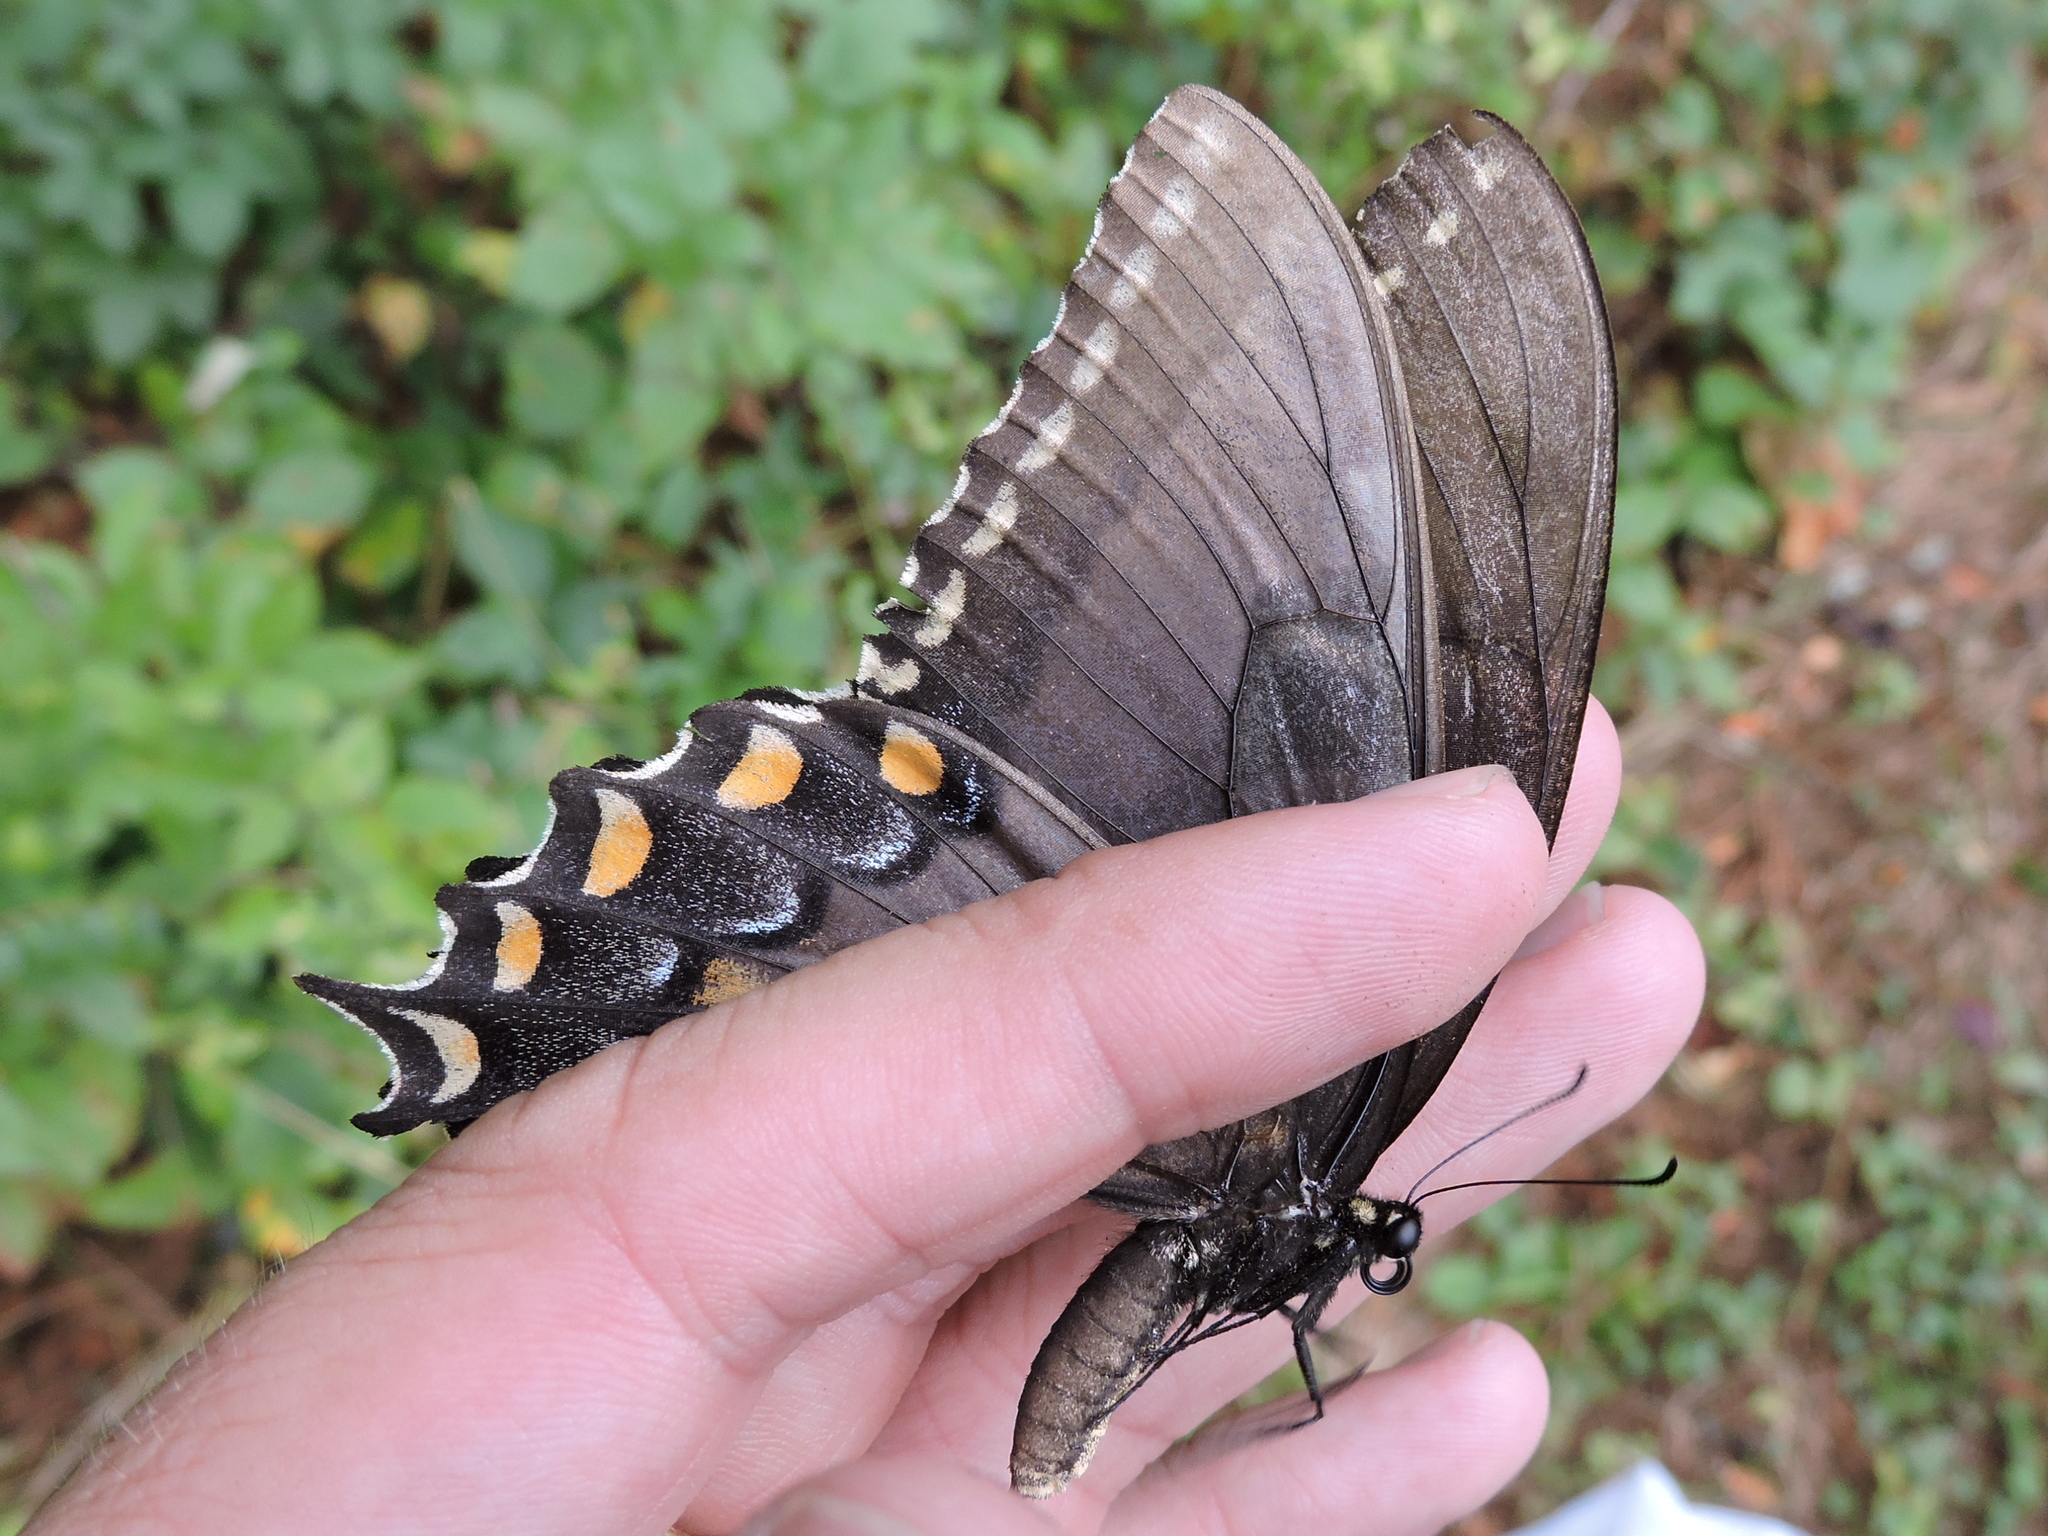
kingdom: Animalia
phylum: Arthropoda
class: Insecta
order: Lepidoptera
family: Papilionidae
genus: Papilio
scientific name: Papilio glaucus
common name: Tiger swallowtail
